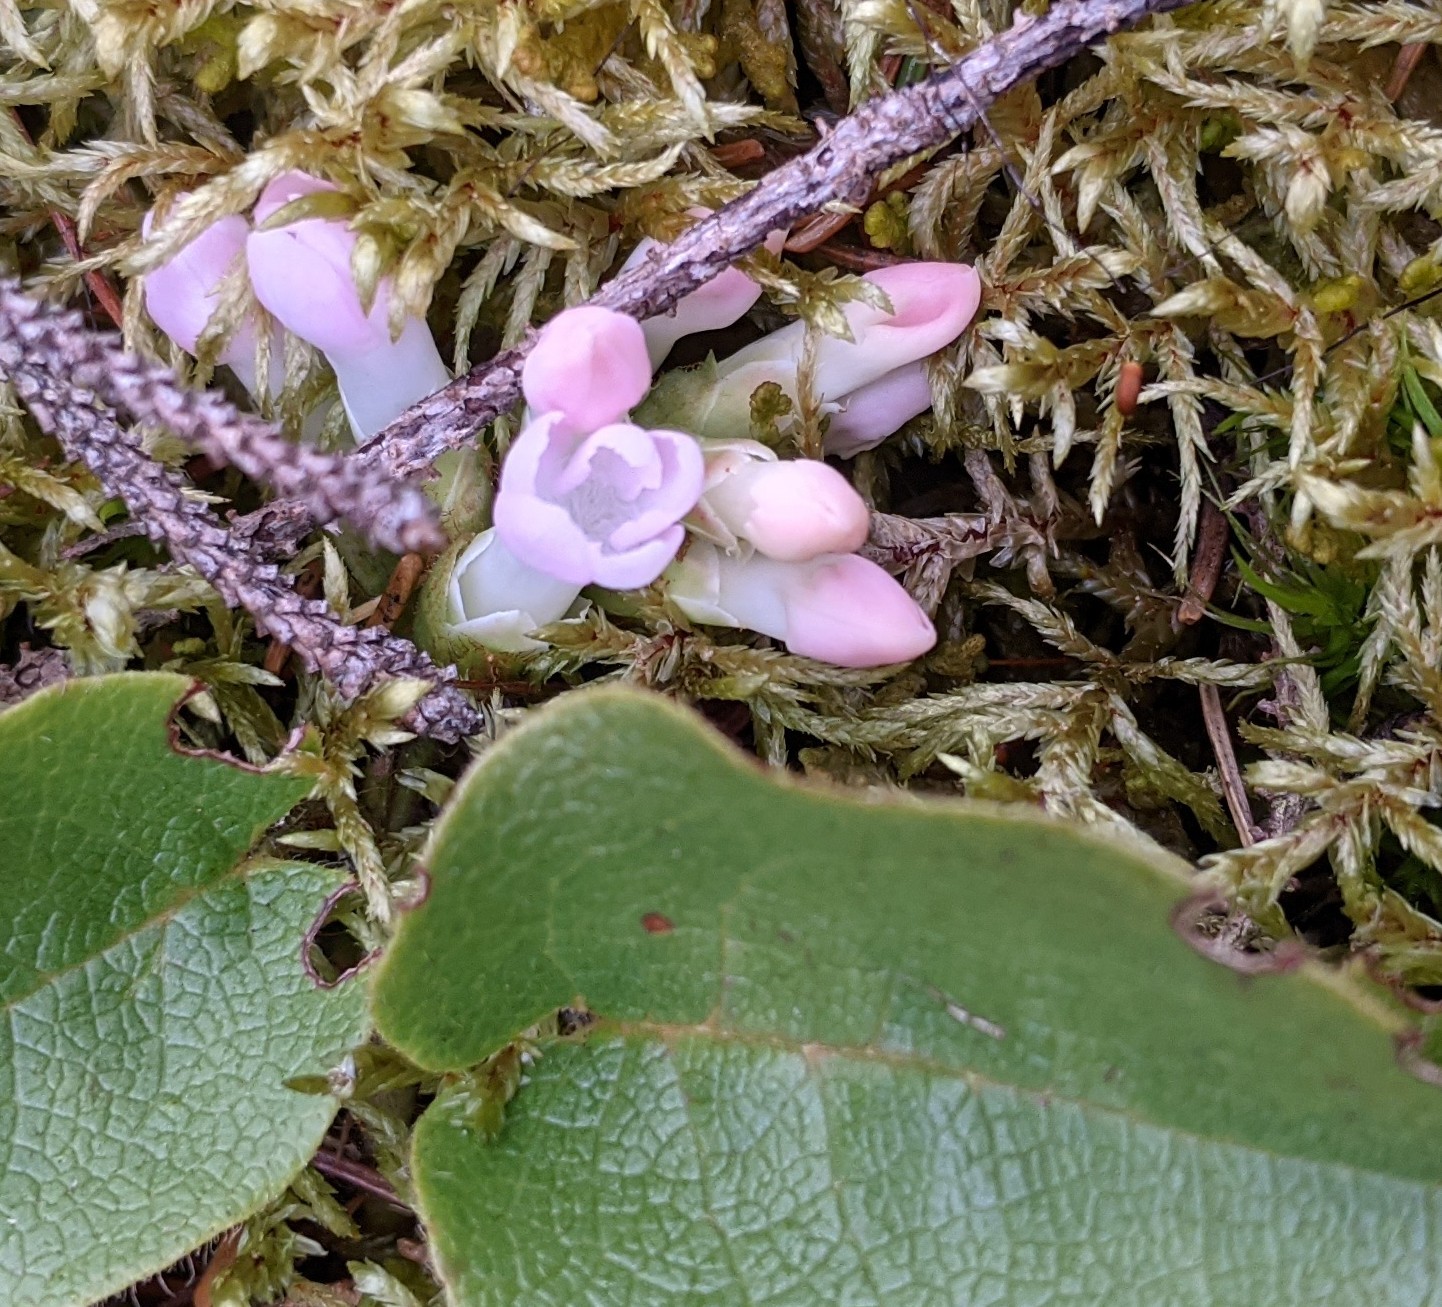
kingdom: Plantae
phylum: Tracheophyta
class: Magnoliopsida
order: Ericales
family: Ericaceae
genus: Epigaea
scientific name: Epigaea repens
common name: Gravelroot
